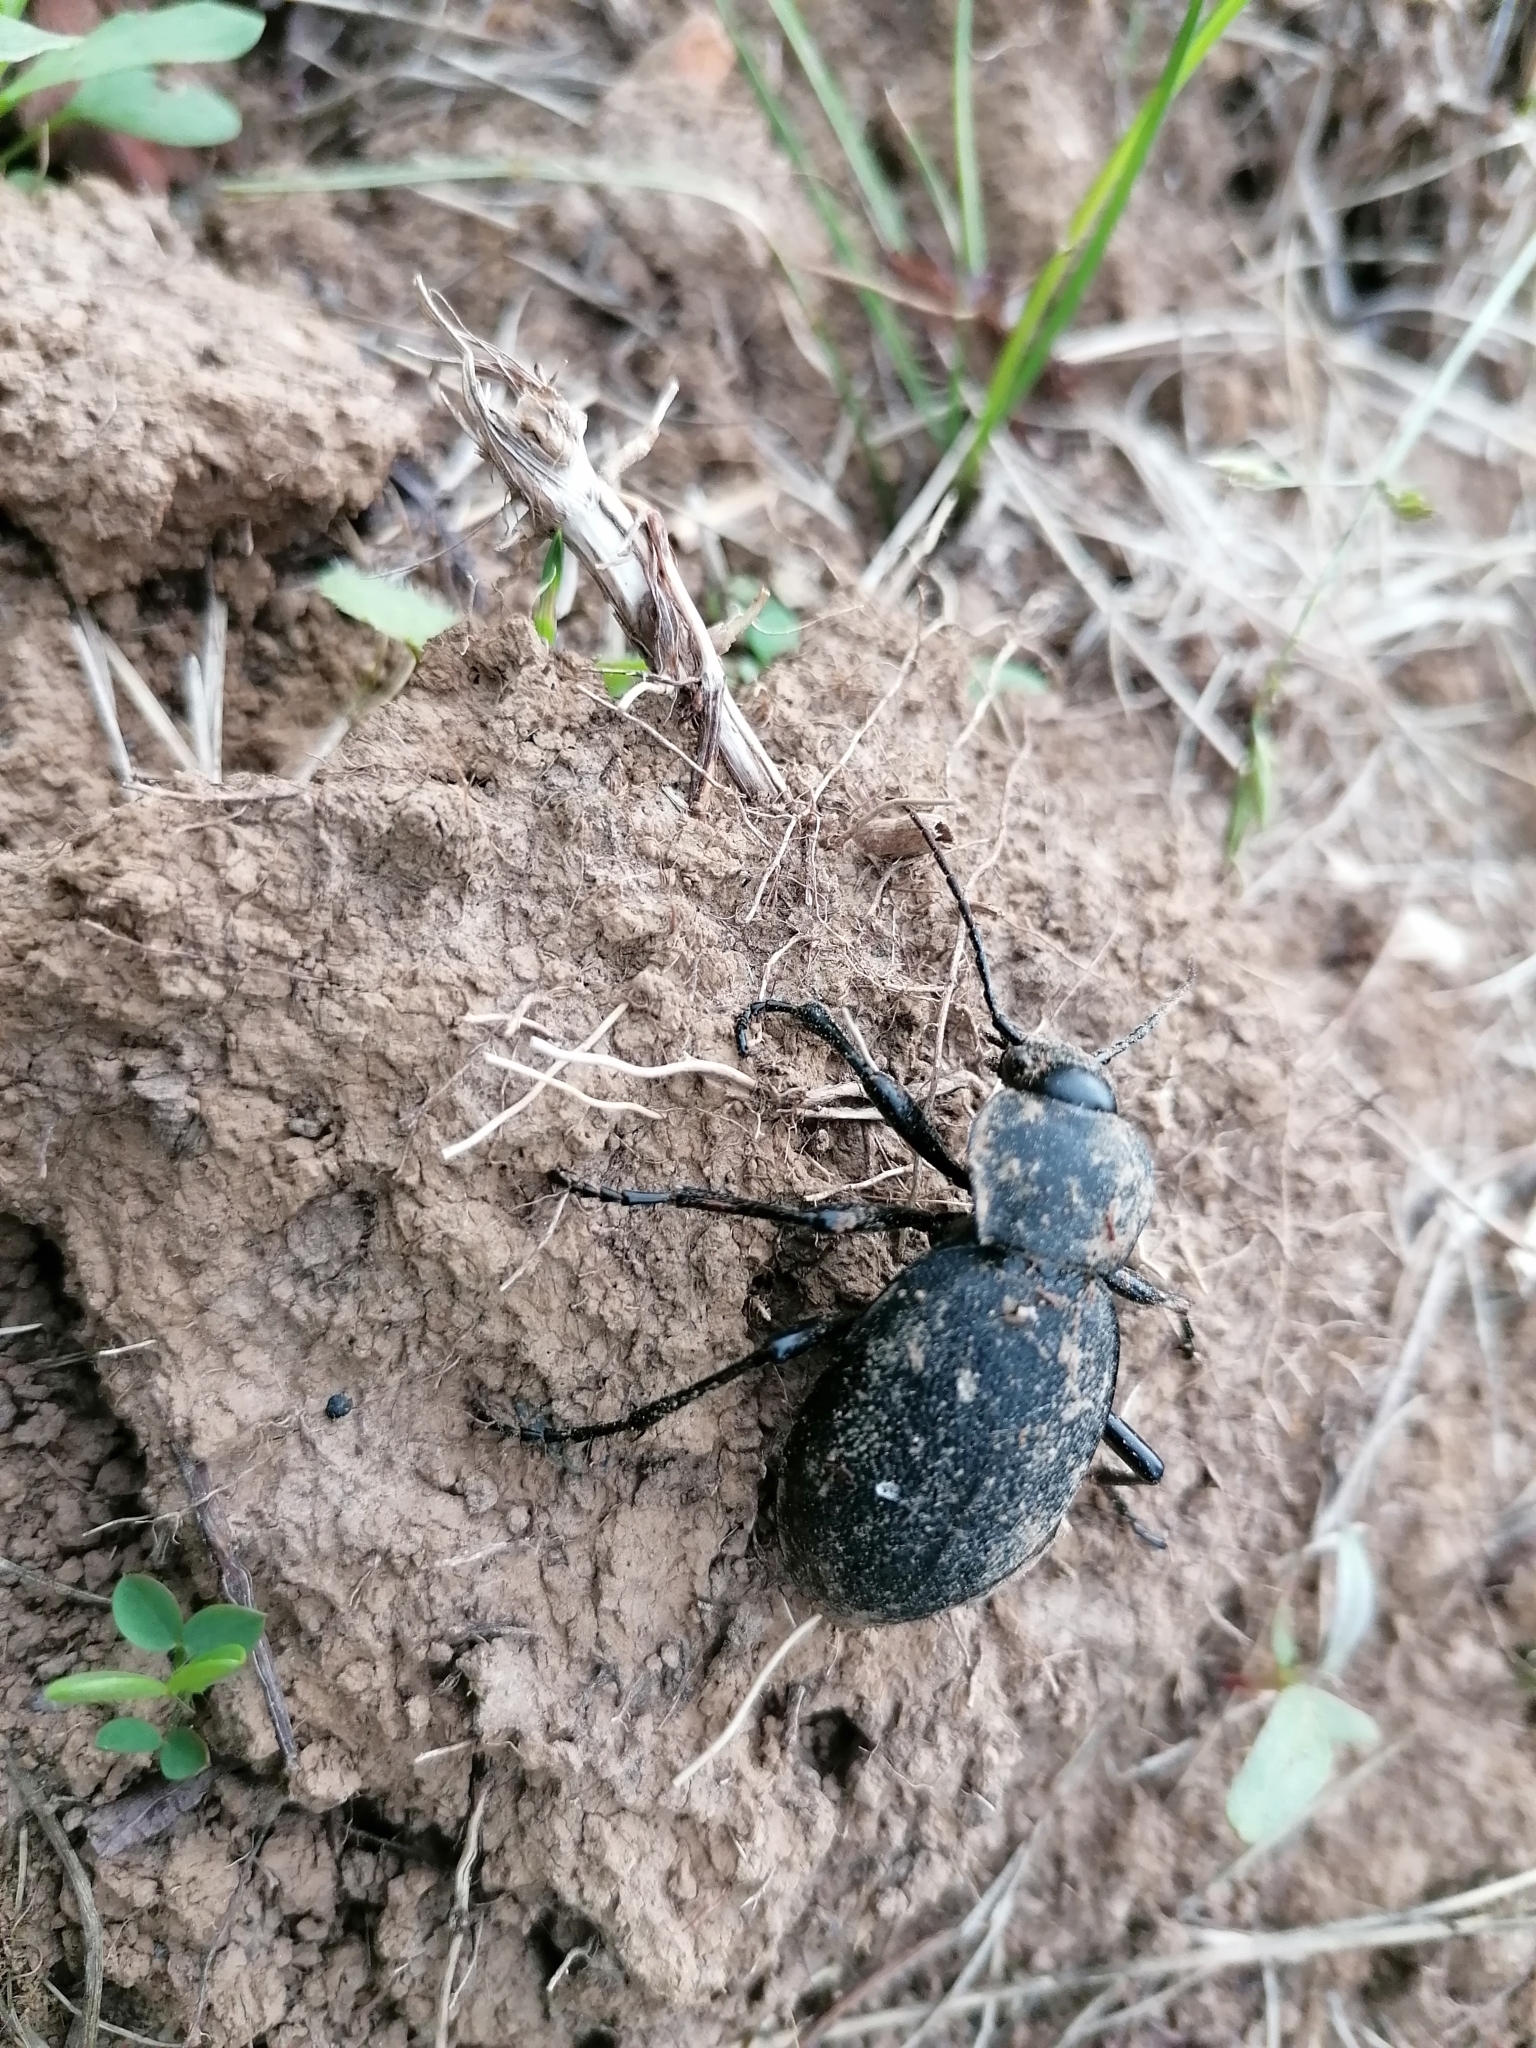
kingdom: Animalia
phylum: Arthropoda
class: Insecta
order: Coleoptera
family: Carabidae
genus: Carabus
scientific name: Carabus coriaceus
